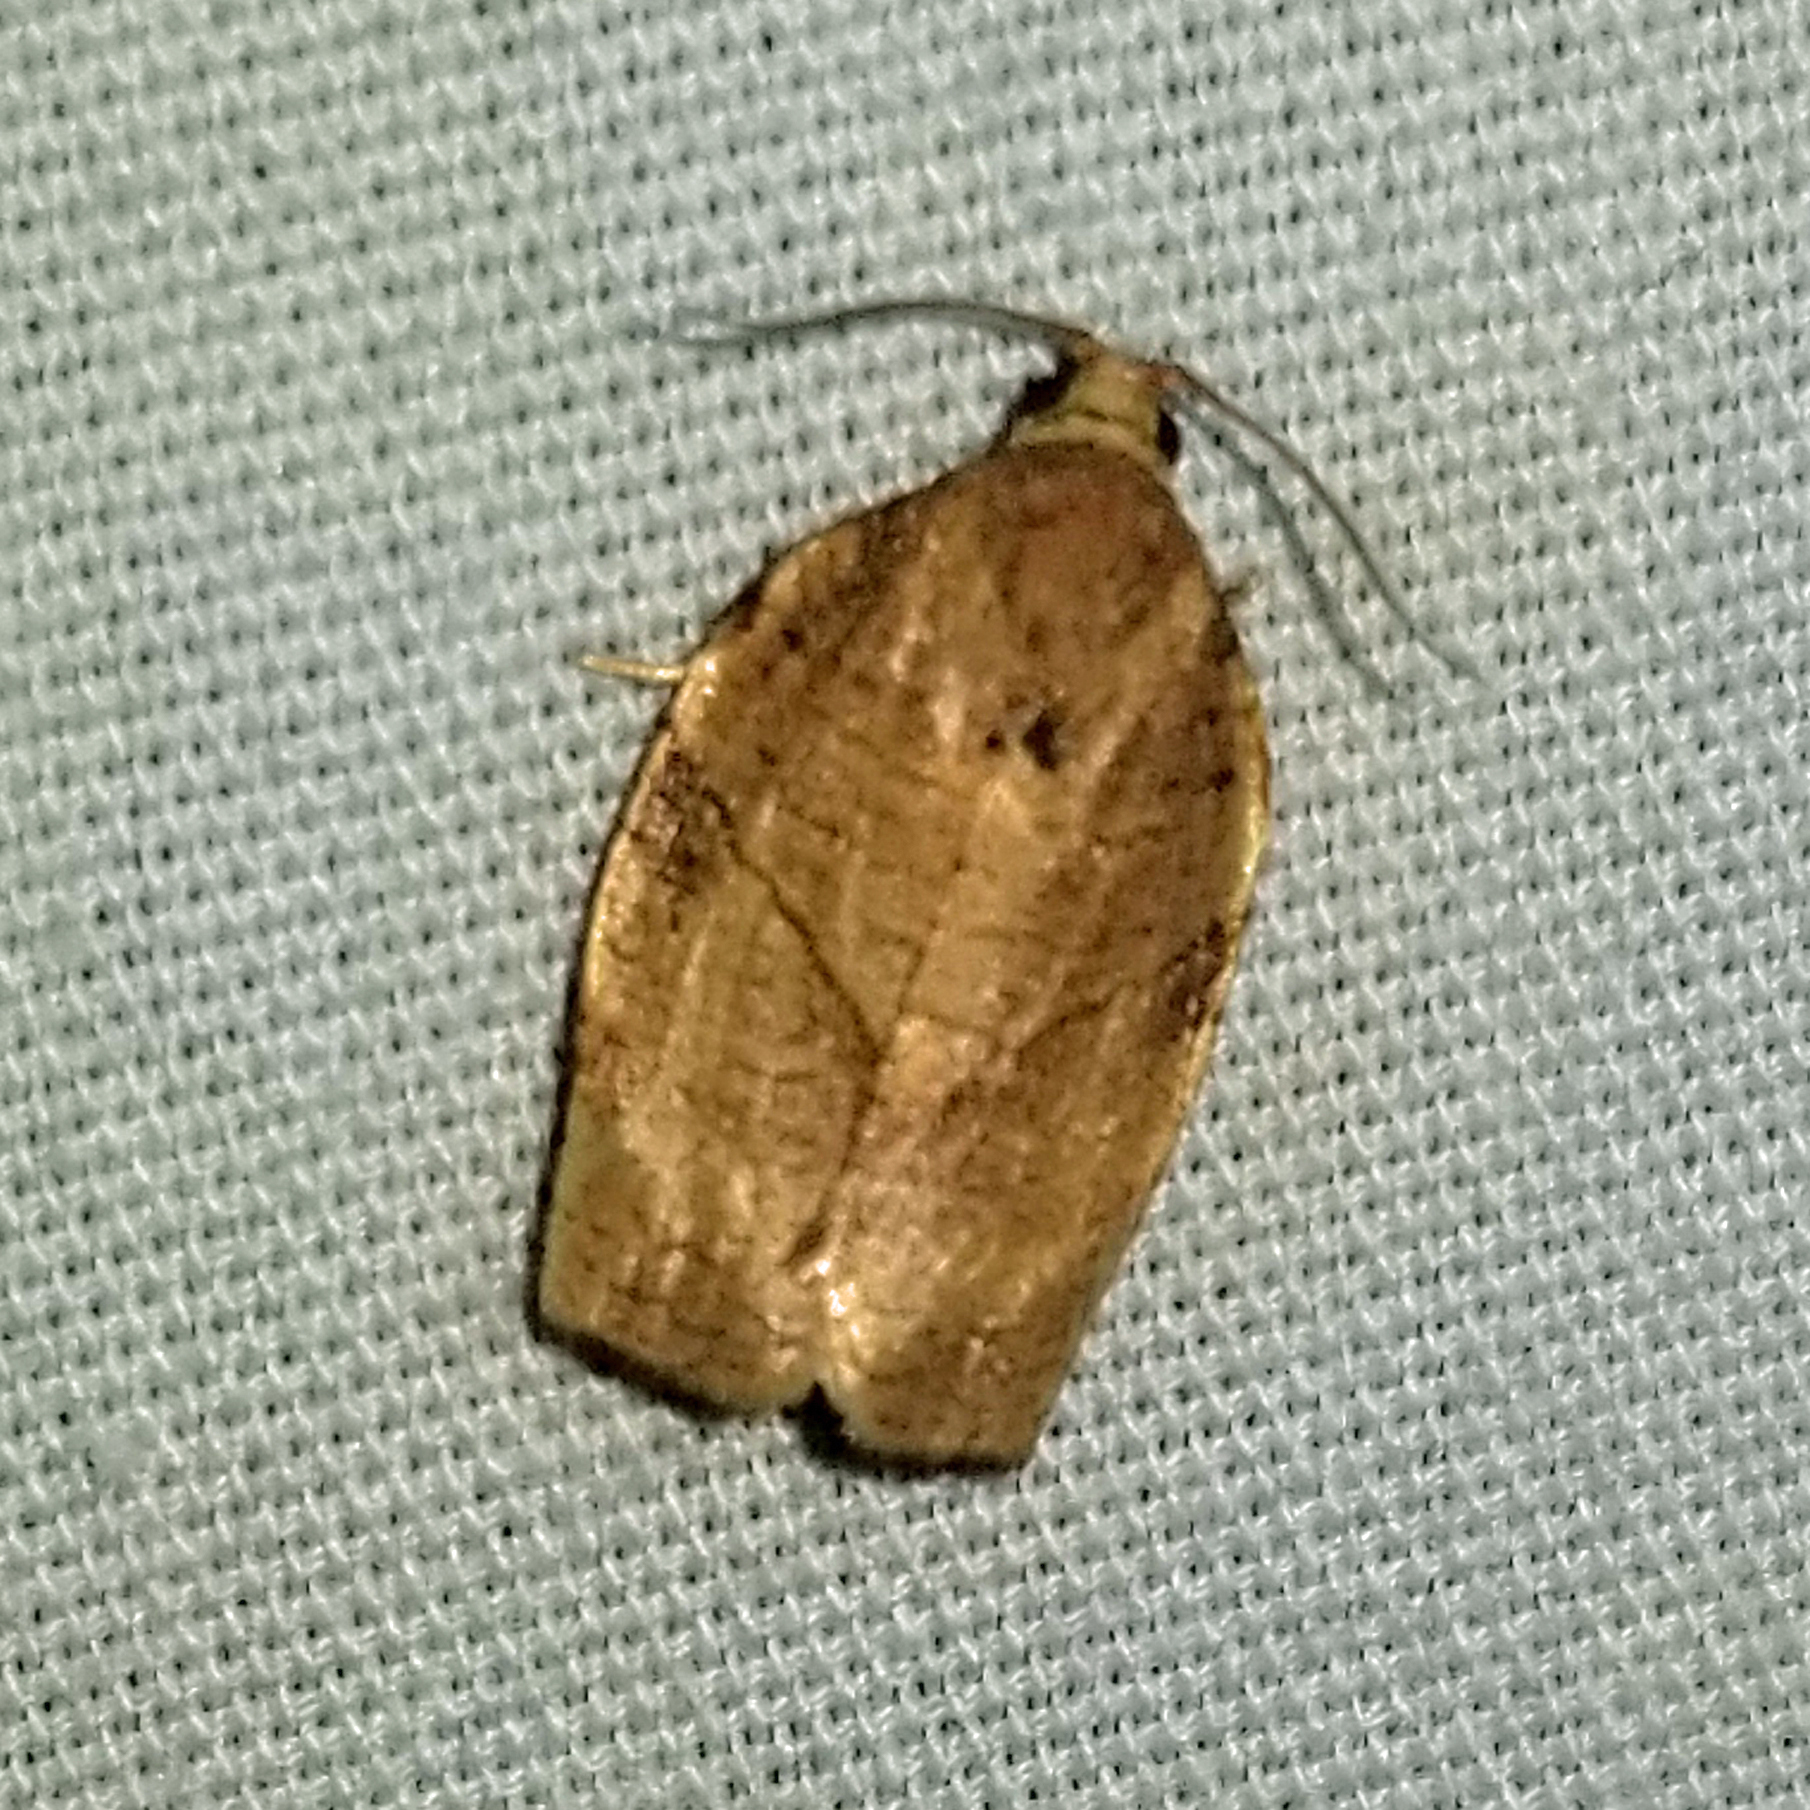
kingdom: Animalia
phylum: Arthropoda
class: Insecta
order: Lepidoptera
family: Tortricidae
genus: Choristoneura
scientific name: Choristoneura rosaceana
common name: Oblique-banded leafroller moth
